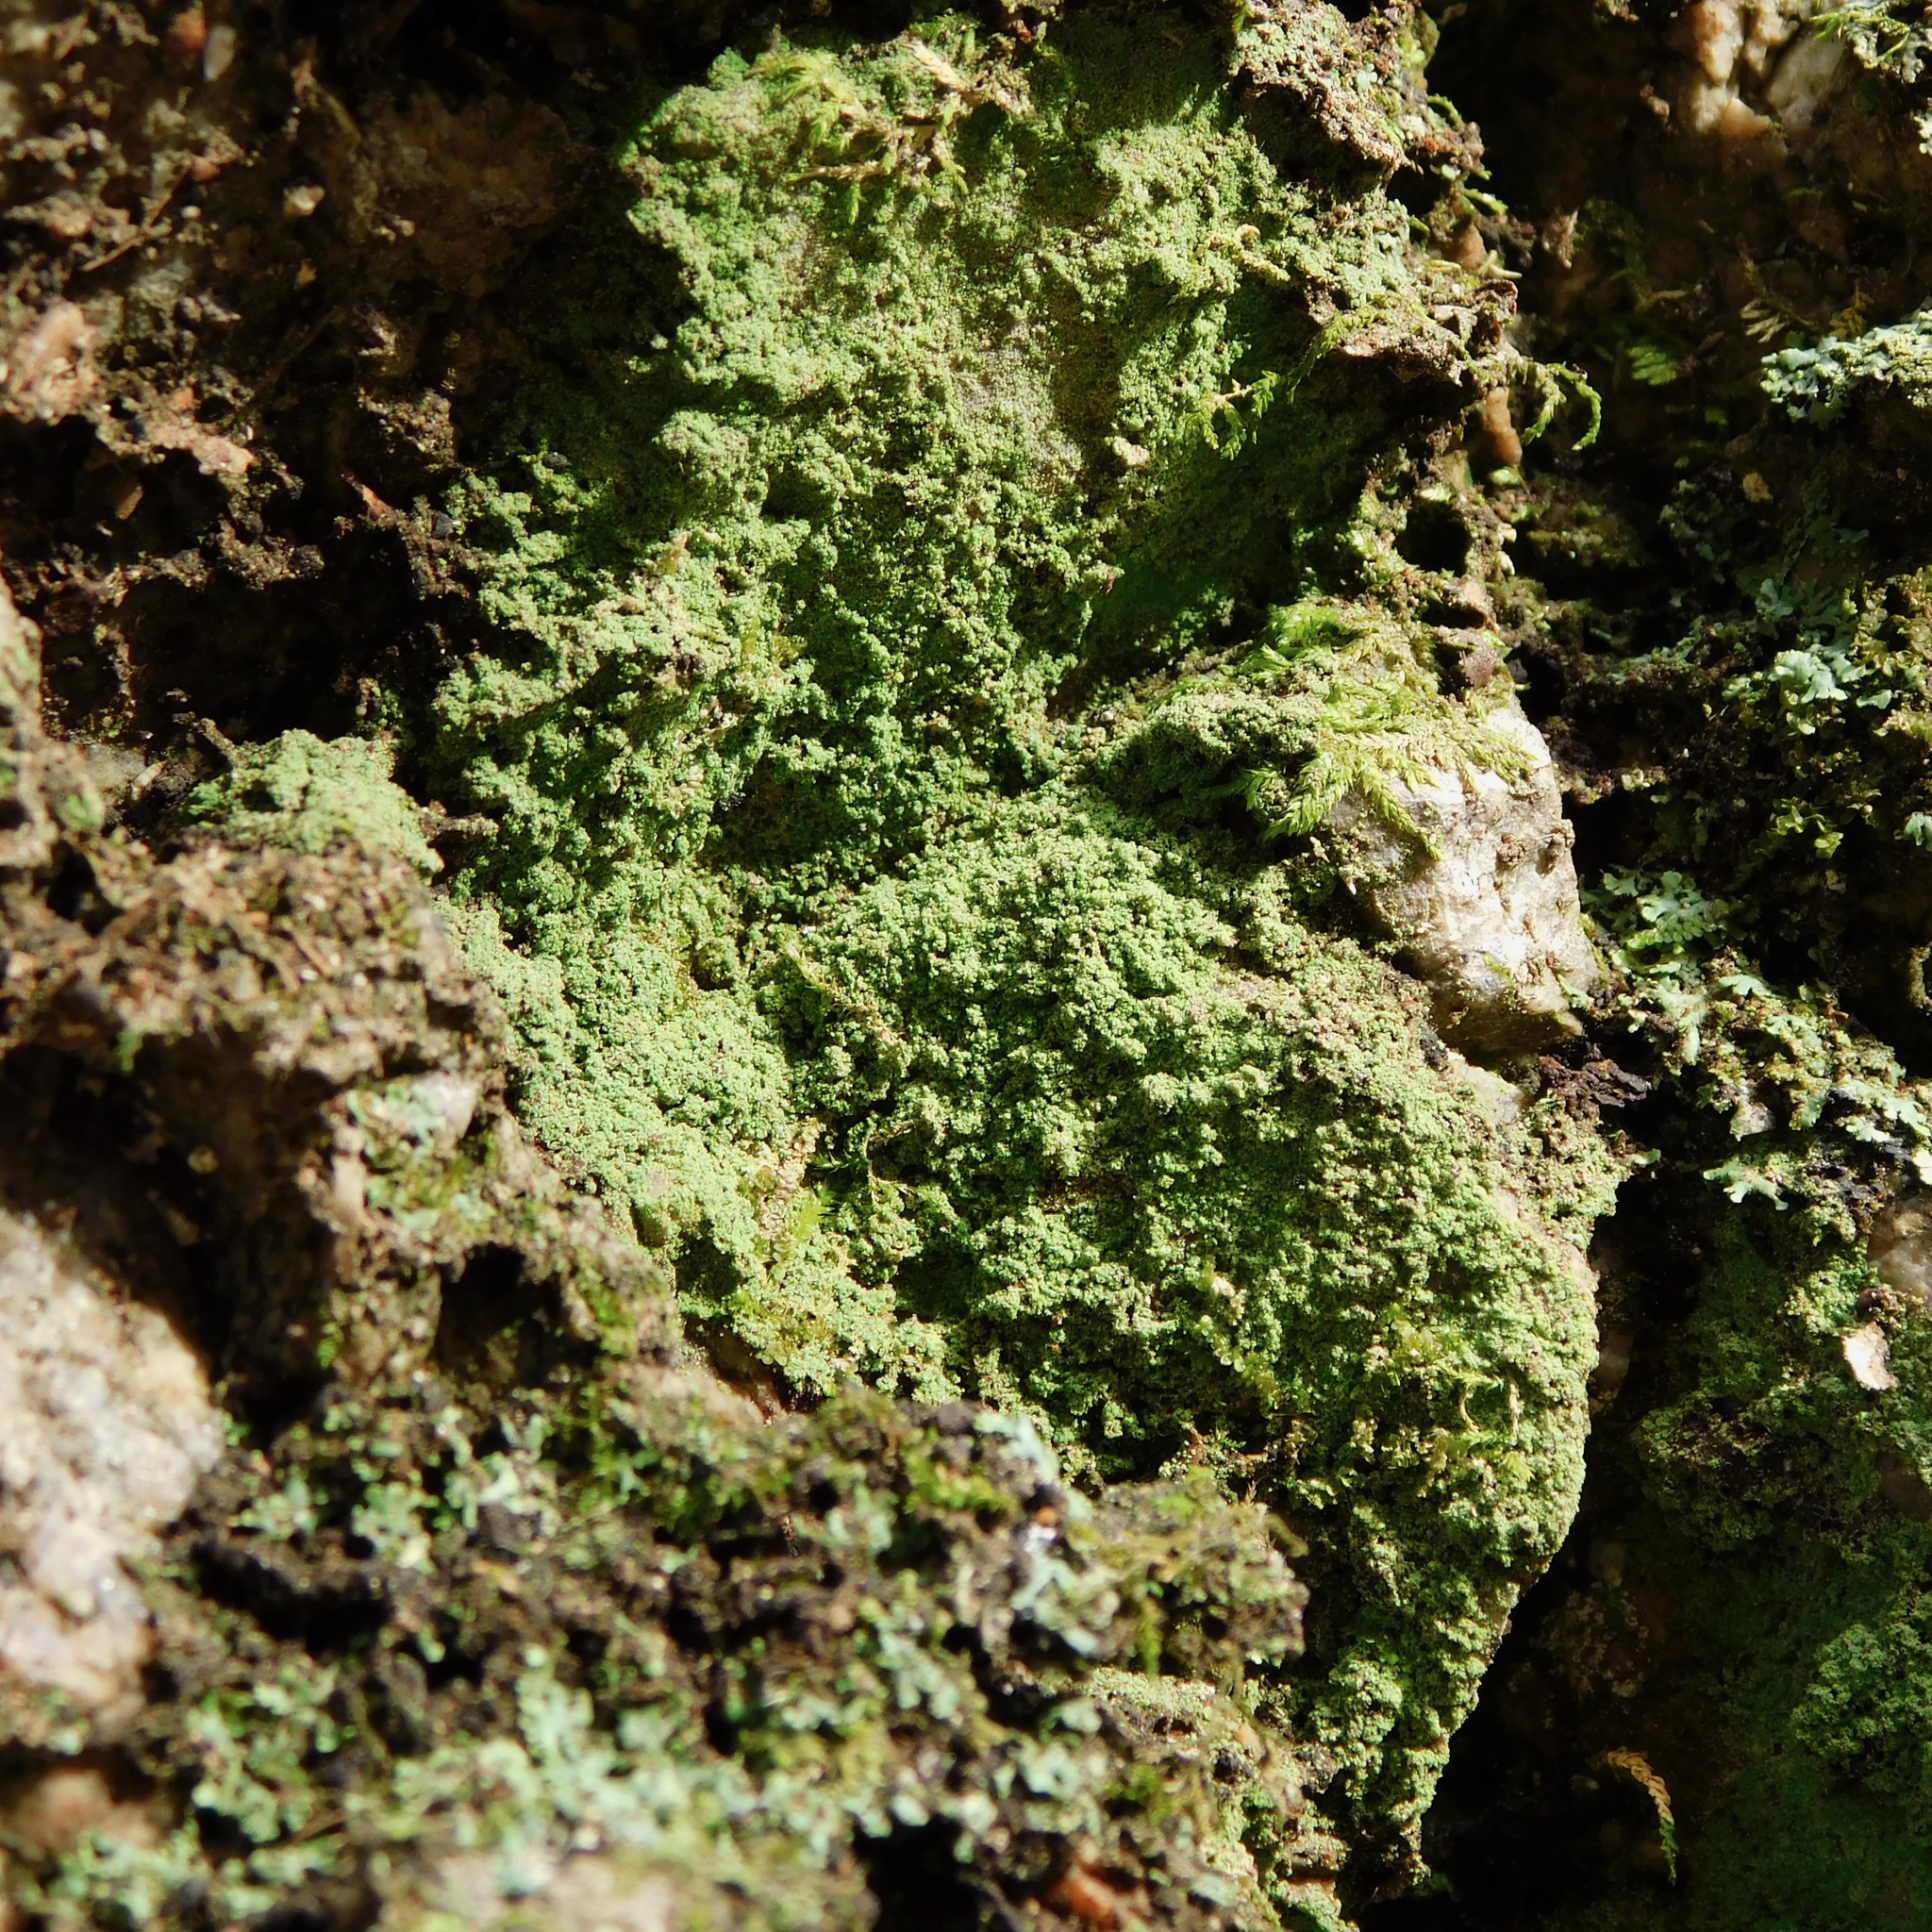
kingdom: Fungi
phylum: Ascomycota
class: Eurotiomycetes
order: Verrucariales
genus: Botryolepraria
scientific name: Botryolepraria lesdainii
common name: Rock candy
